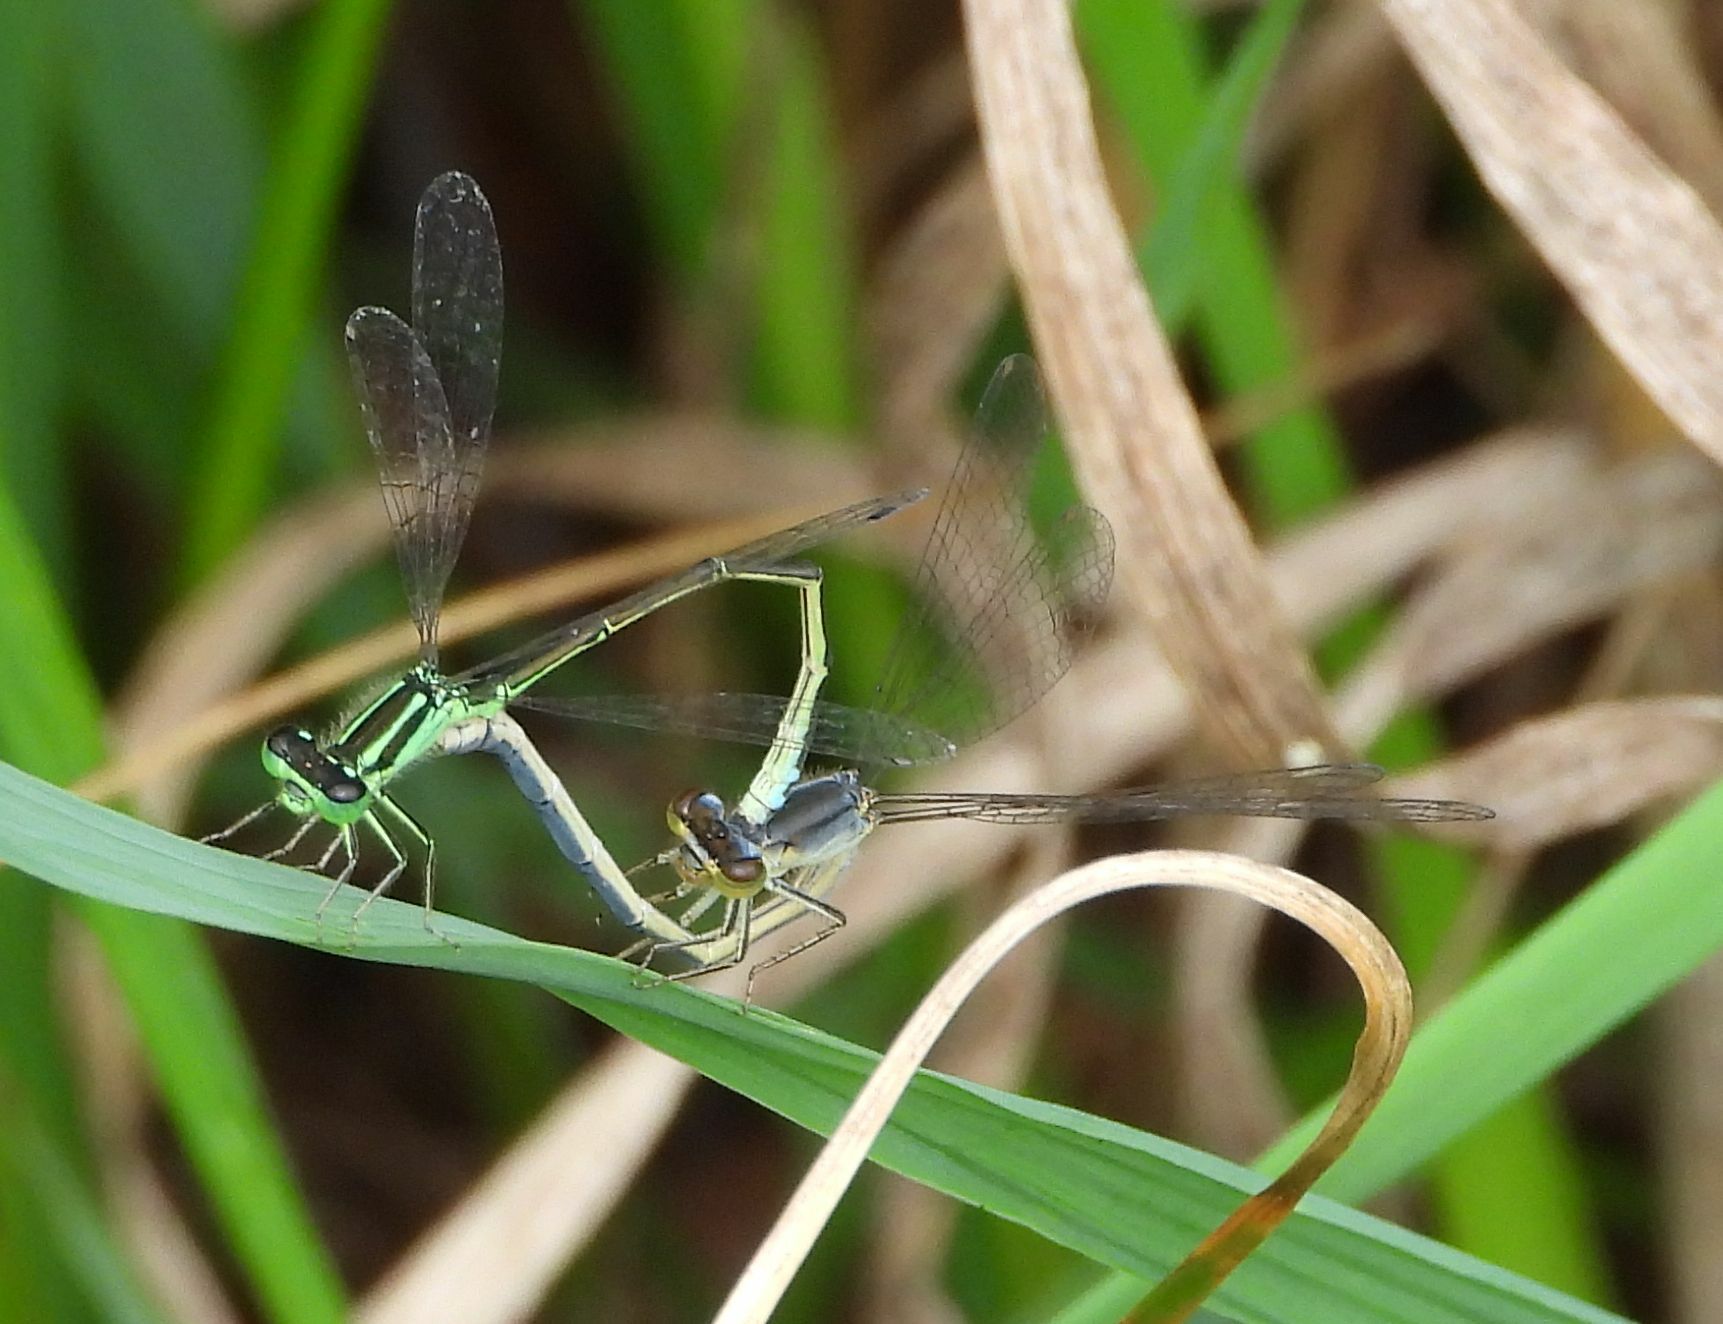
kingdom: Animalia
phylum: Arthropoda
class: Insecta
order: Odonata
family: Coenagrionidae
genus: Ischnura
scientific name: Ischnura verticalis
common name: Eastern forktail
